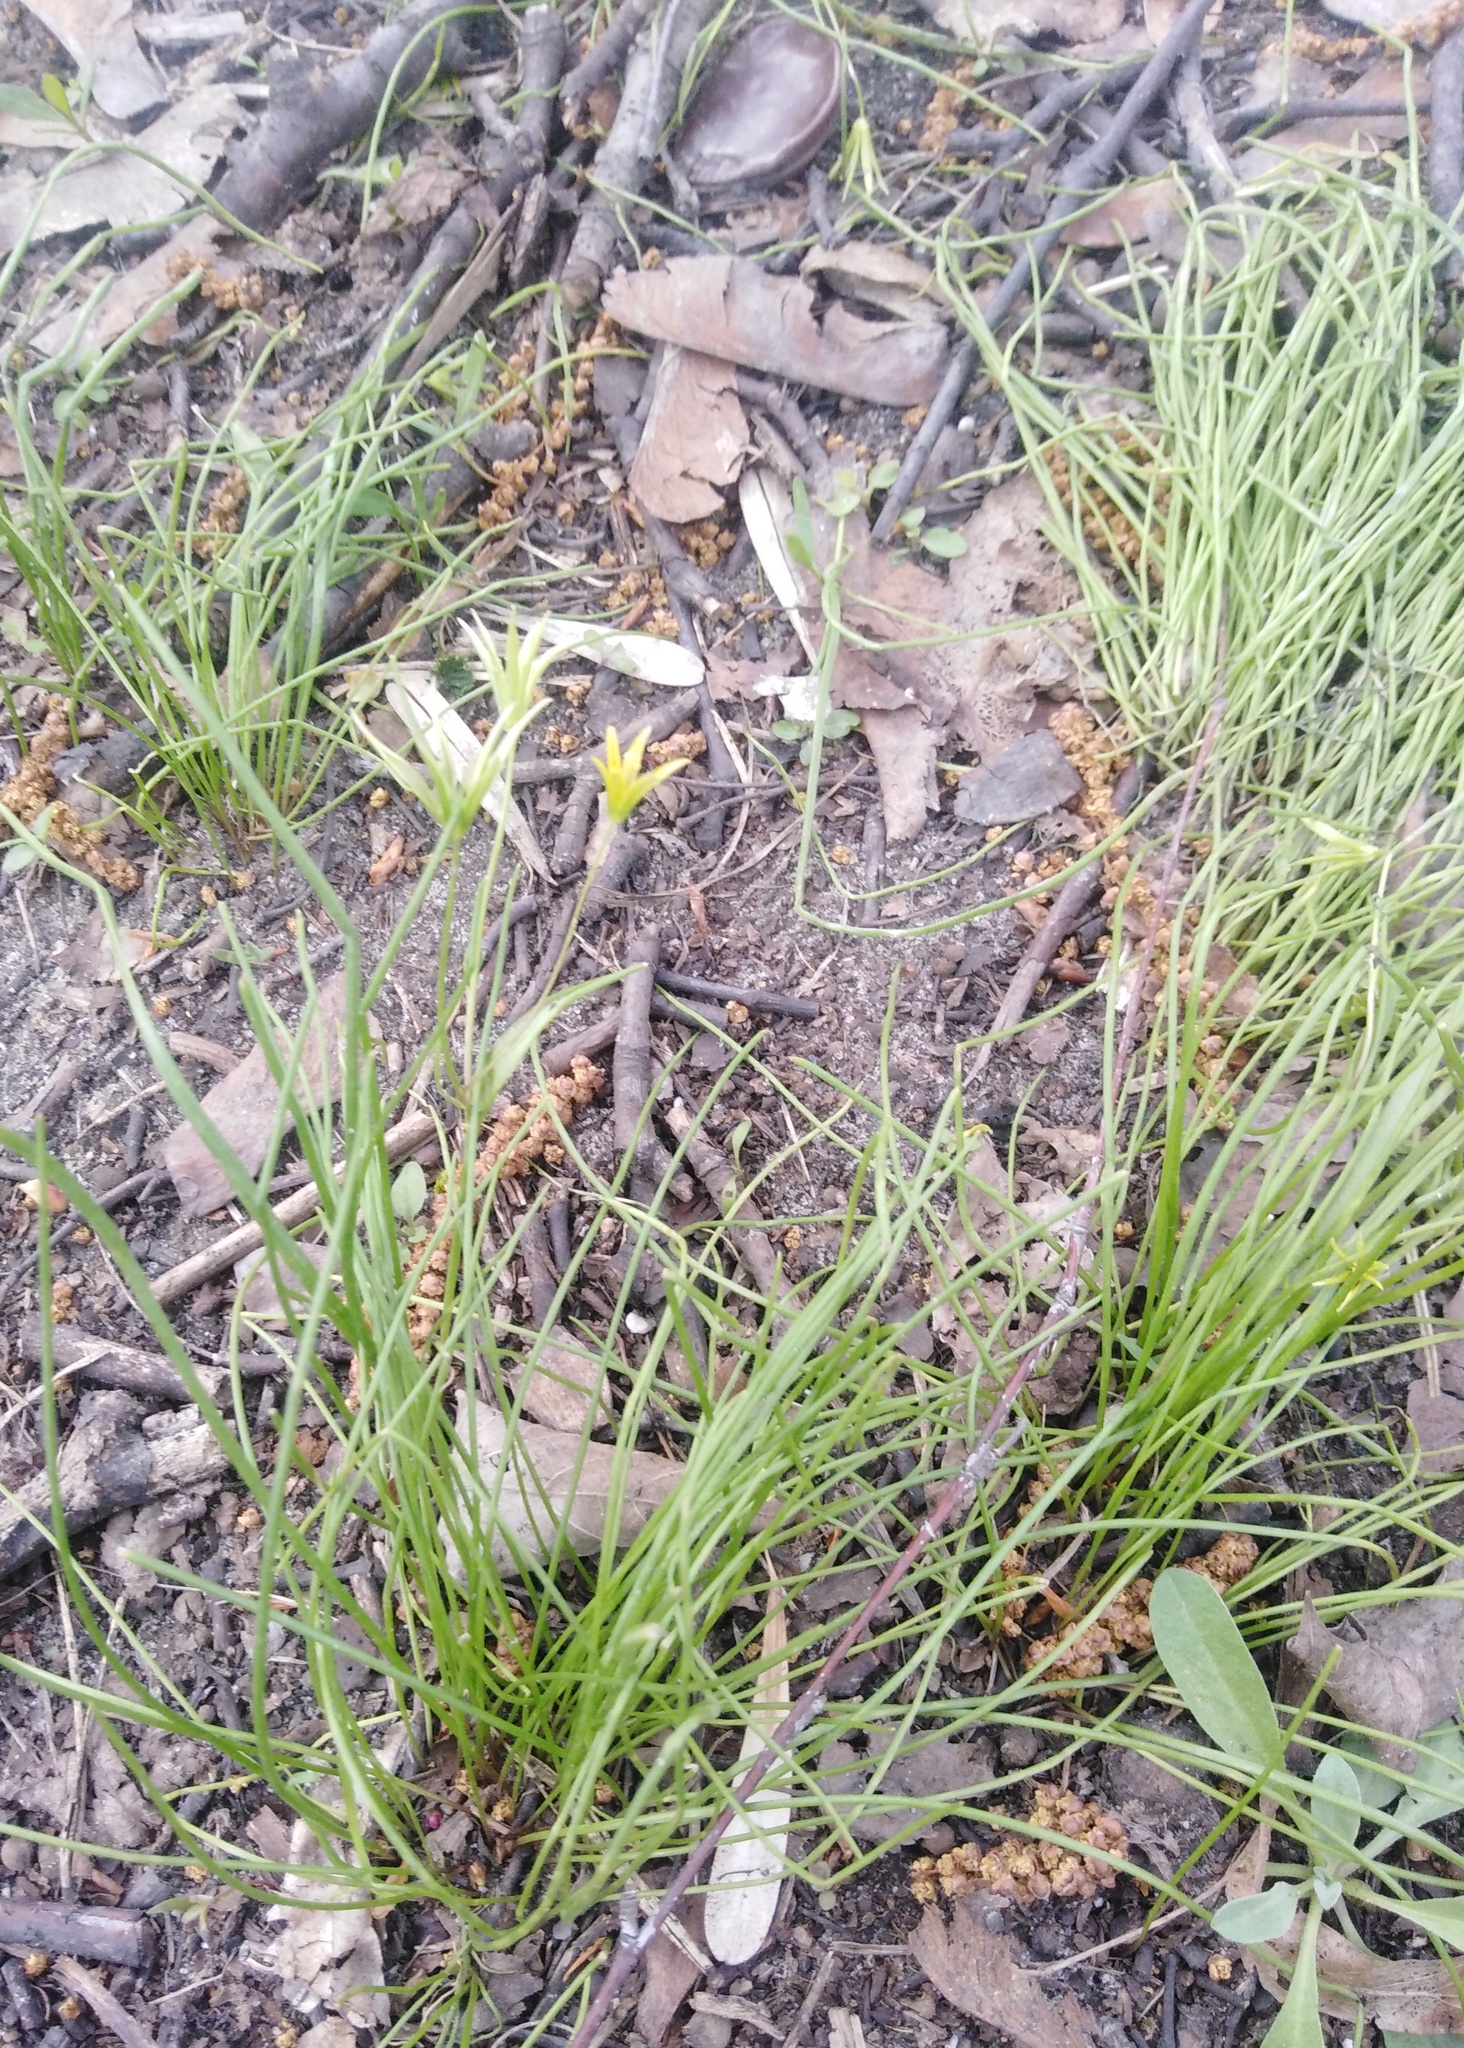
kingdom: Plantae
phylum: Tracheophyta
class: Liliopsida
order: Liliales
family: Liliaceae
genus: Gagea
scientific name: Gagea minima
